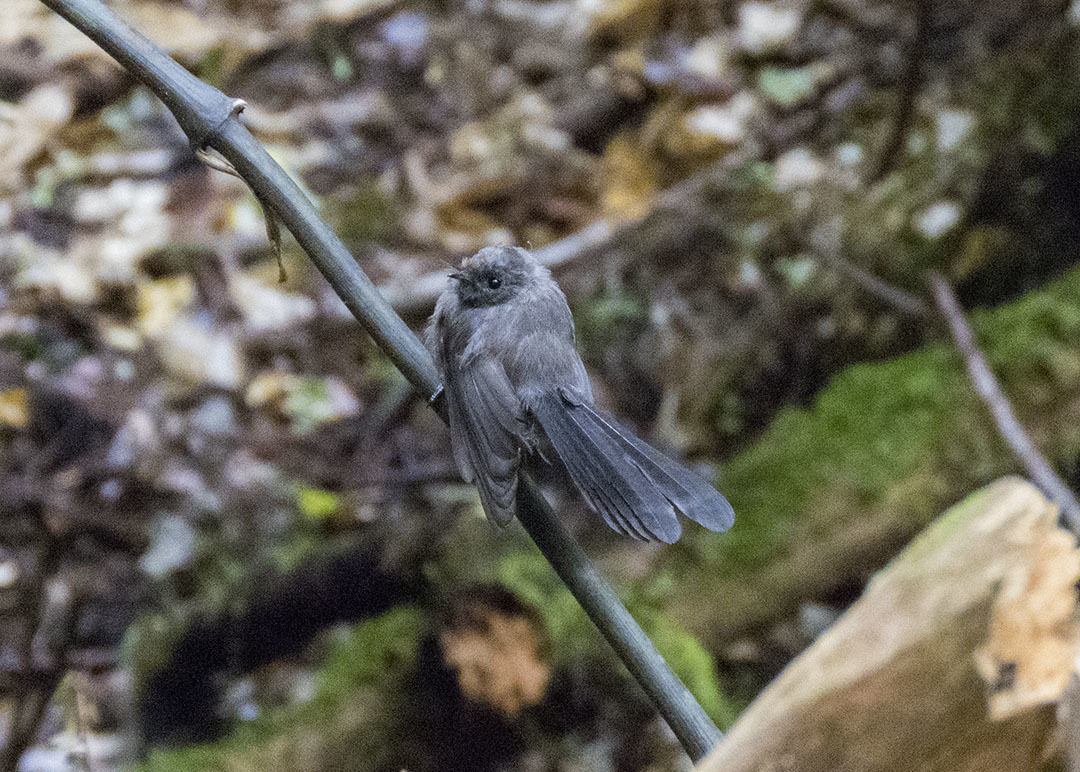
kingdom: Animalia
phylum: Chordata
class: Aves
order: Passeriformes
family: Rhipiduridae
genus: Rhipidura
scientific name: Rhipidura fuliginosa
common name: New zealand fantail
